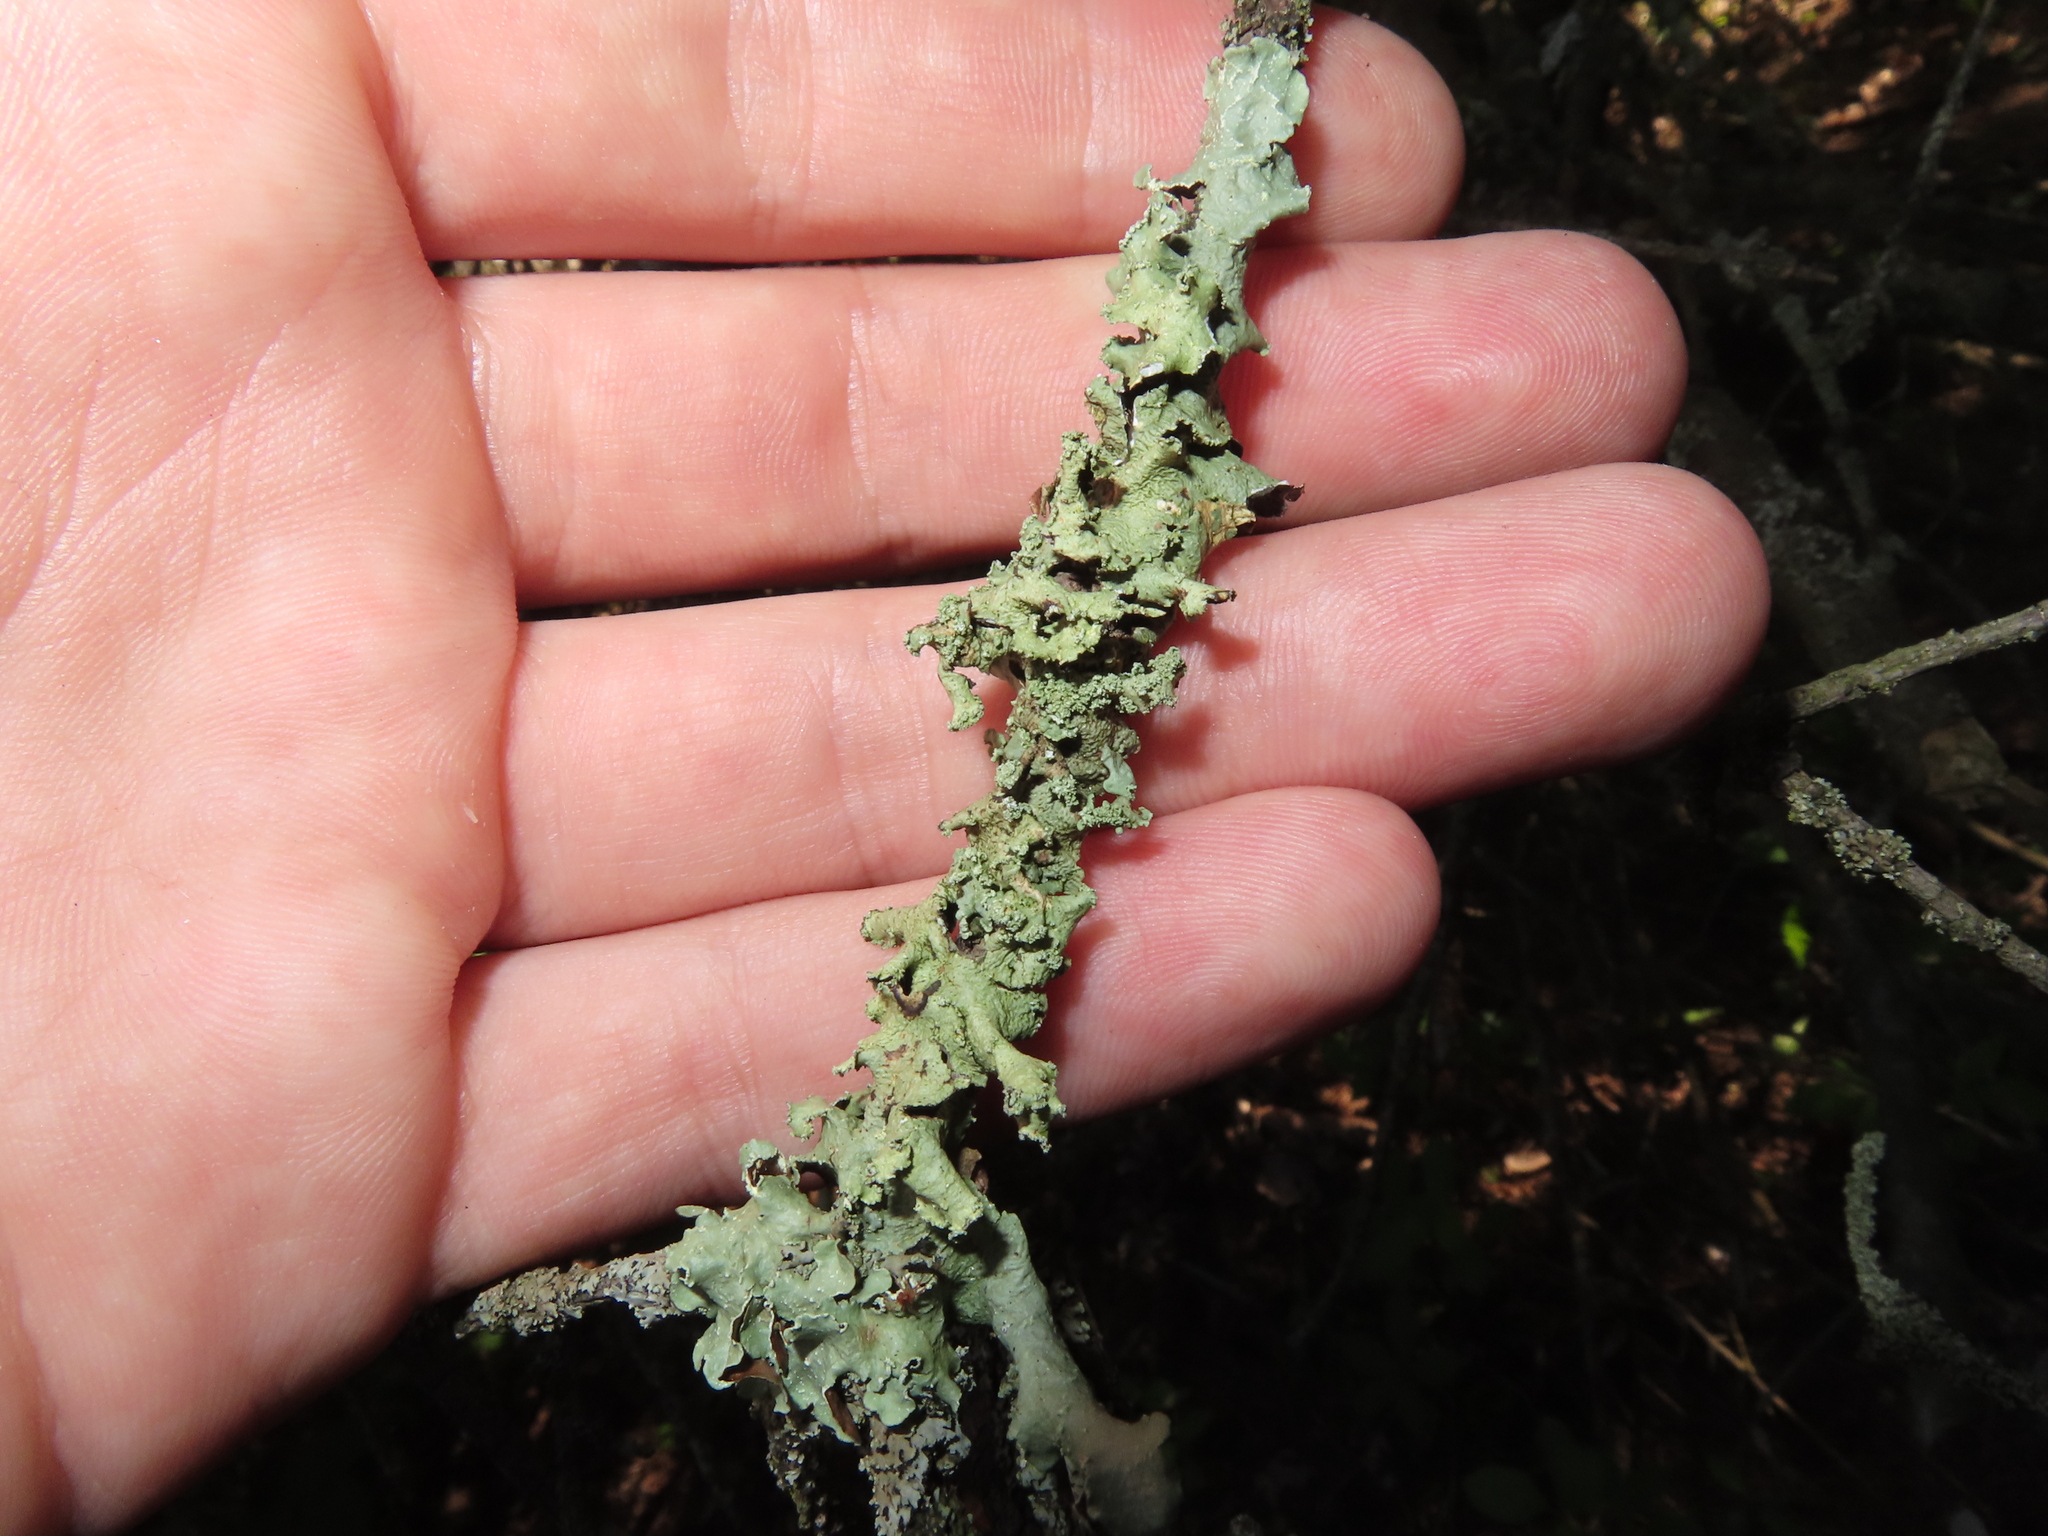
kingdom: Fungi
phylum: Ascomycota
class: Lecanoromycetes
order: Lecanorales
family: Parmeliaceae
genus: Flavopunctelia
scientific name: Flavopunctelia flaventior
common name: Speckled greenshield
